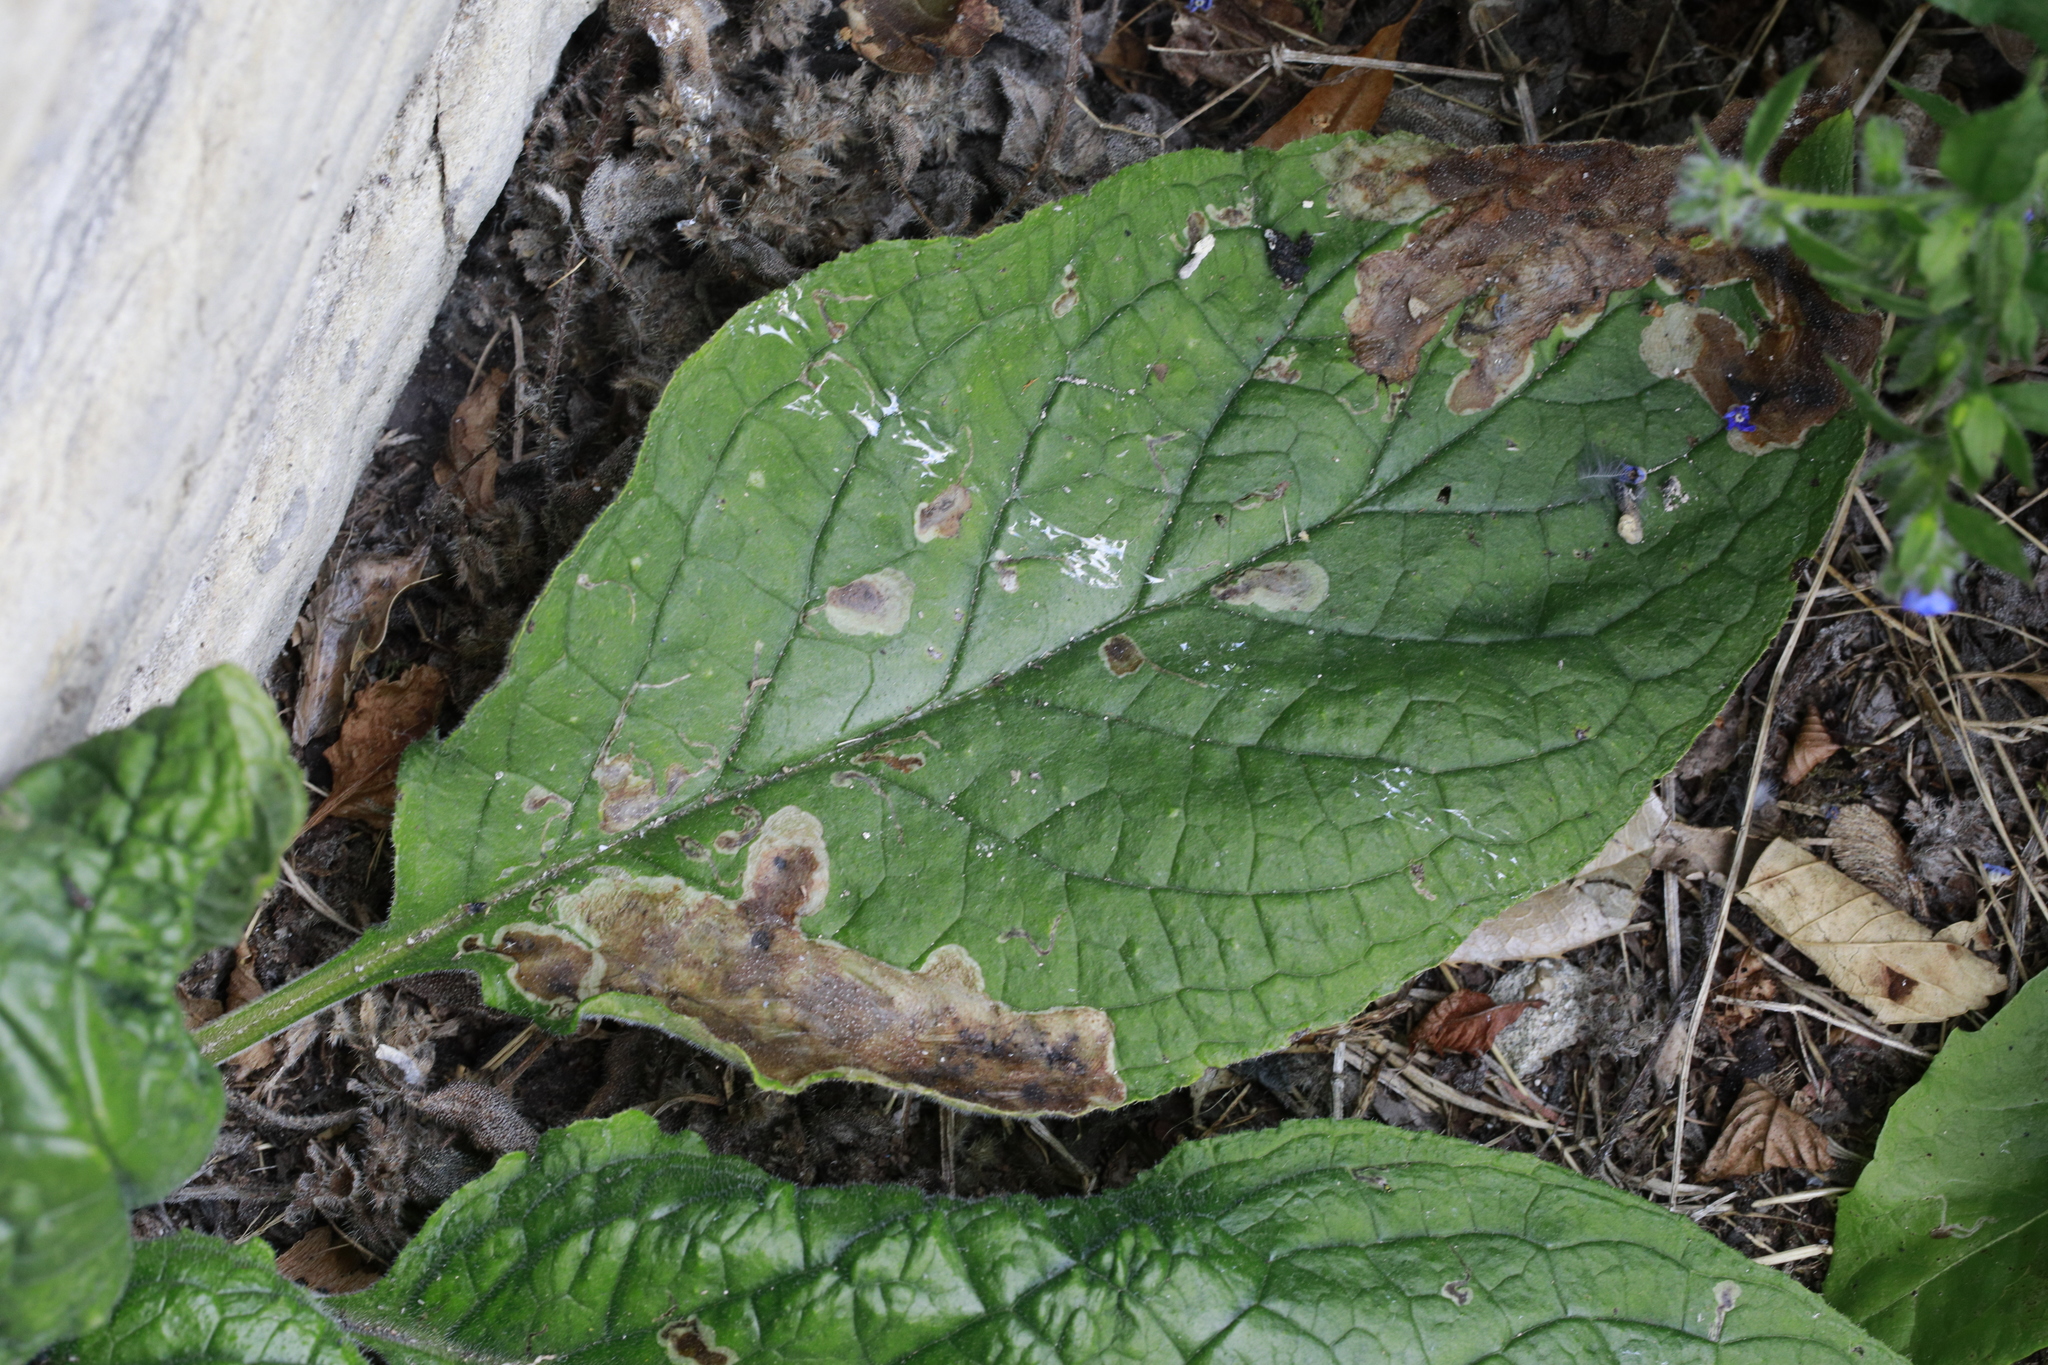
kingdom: Plantae
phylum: Tracheophyta
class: Magnoliopsida
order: Boraginales
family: Boraginaceae
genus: Pentaglottis
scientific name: Pentaglottis sempervirens
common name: Green alkanet
